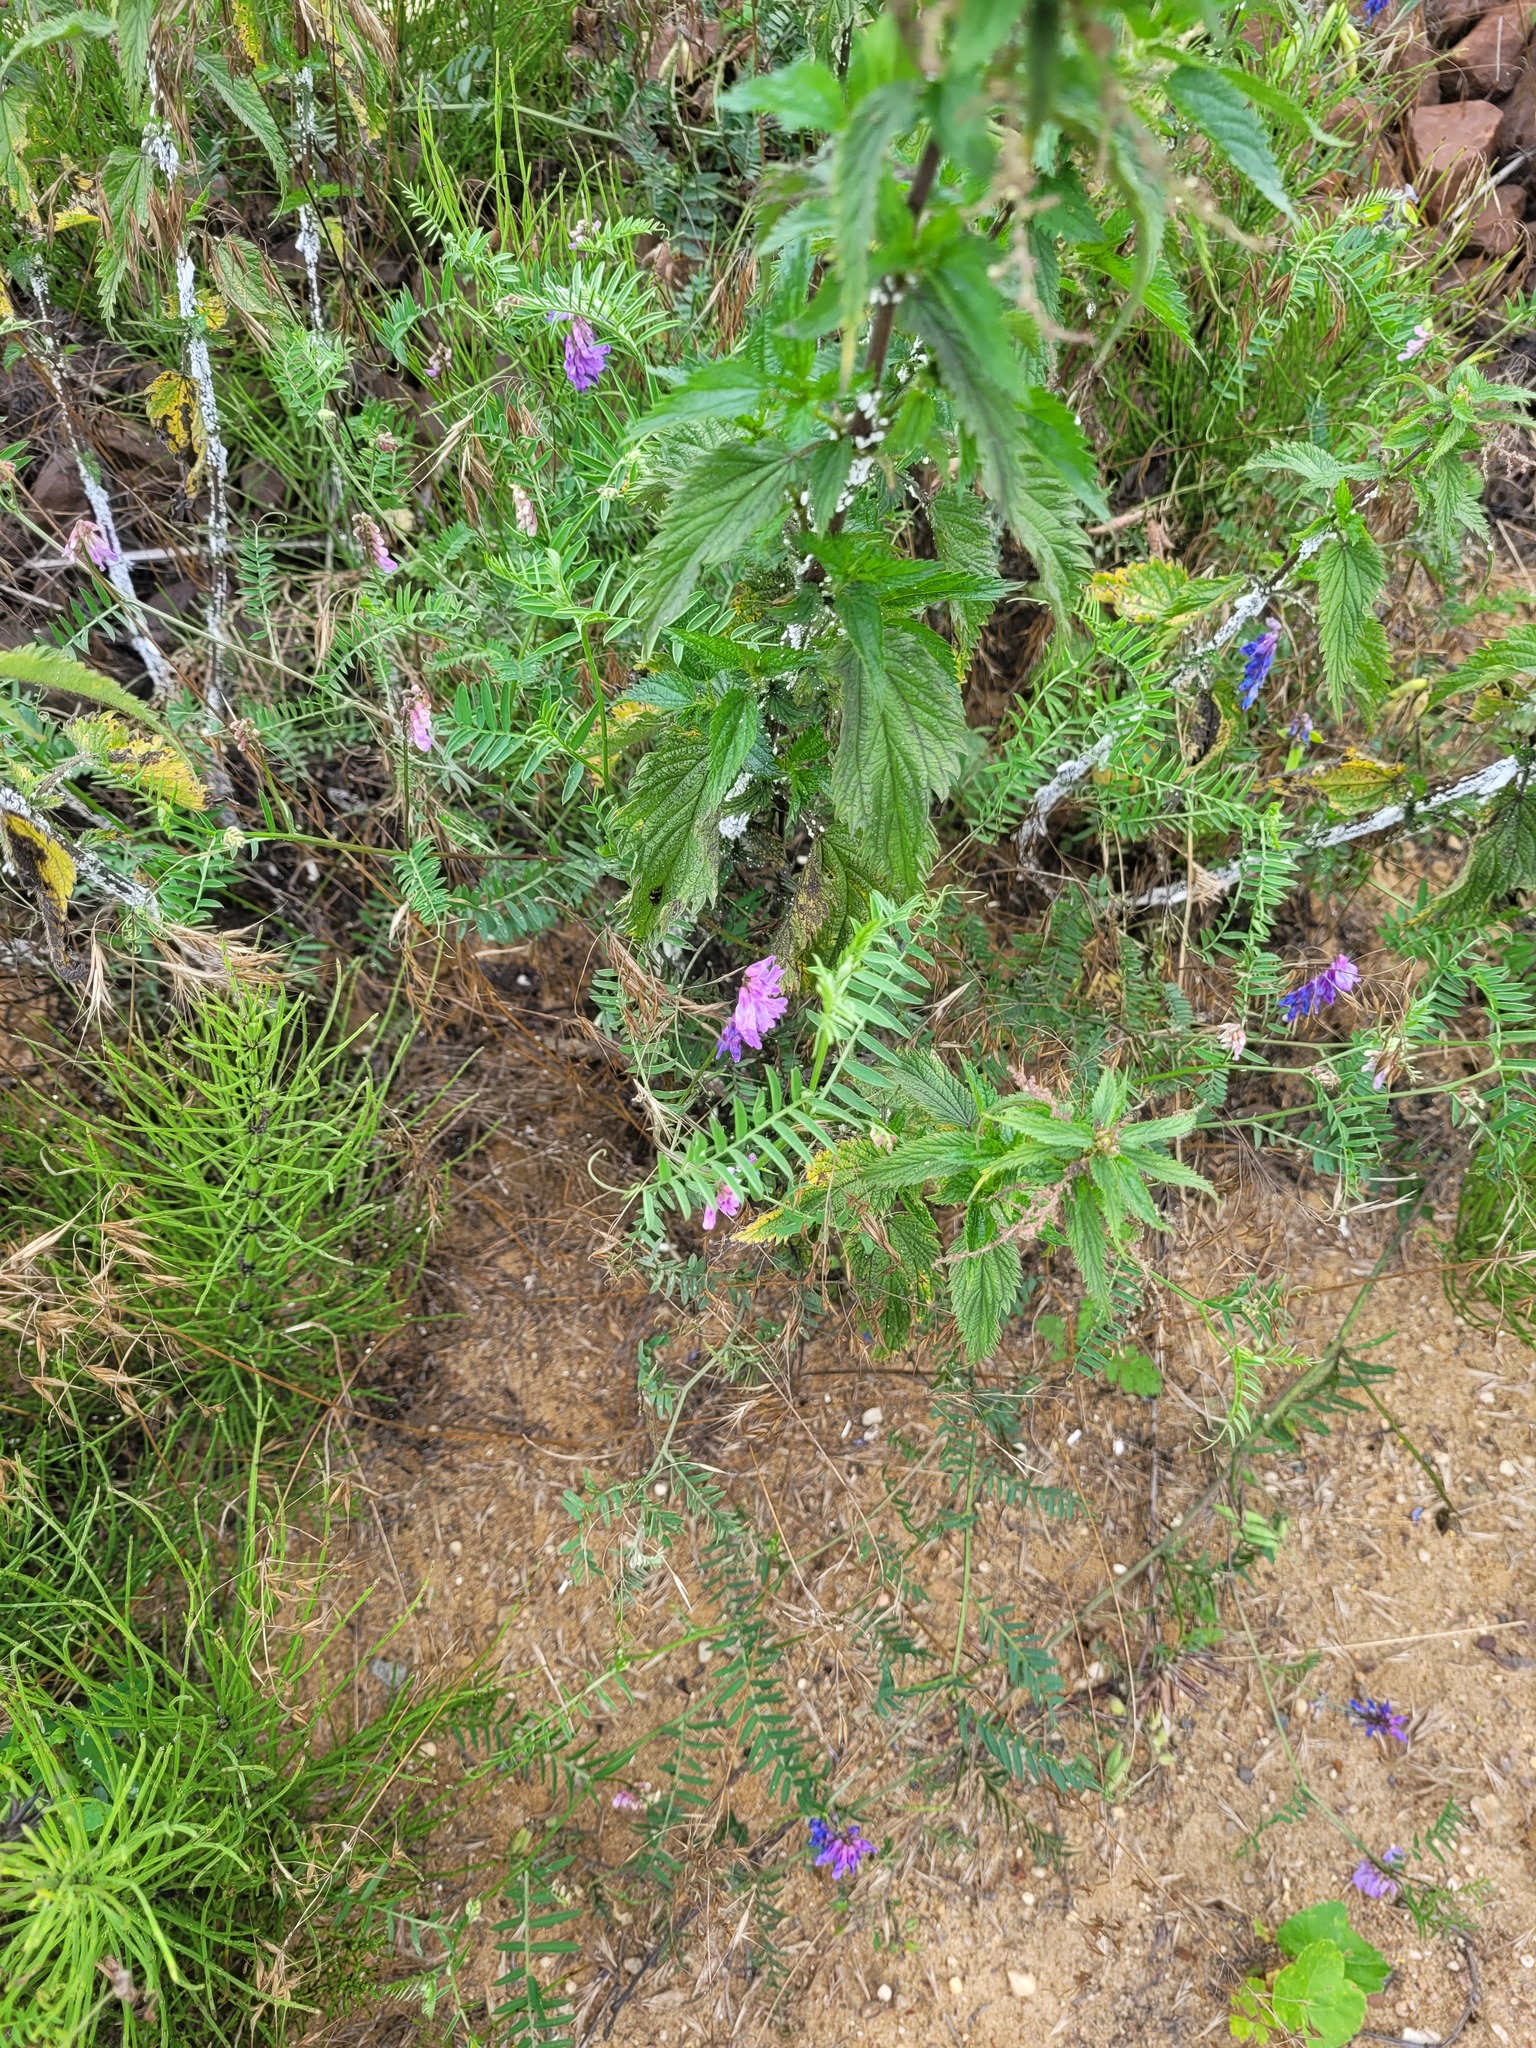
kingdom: Plantae
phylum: Tracheophyta
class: Magnoliopsida
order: Fabales
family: Fabaceae
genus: Vicia
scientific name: Vicia cracca
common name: Bird vetch
